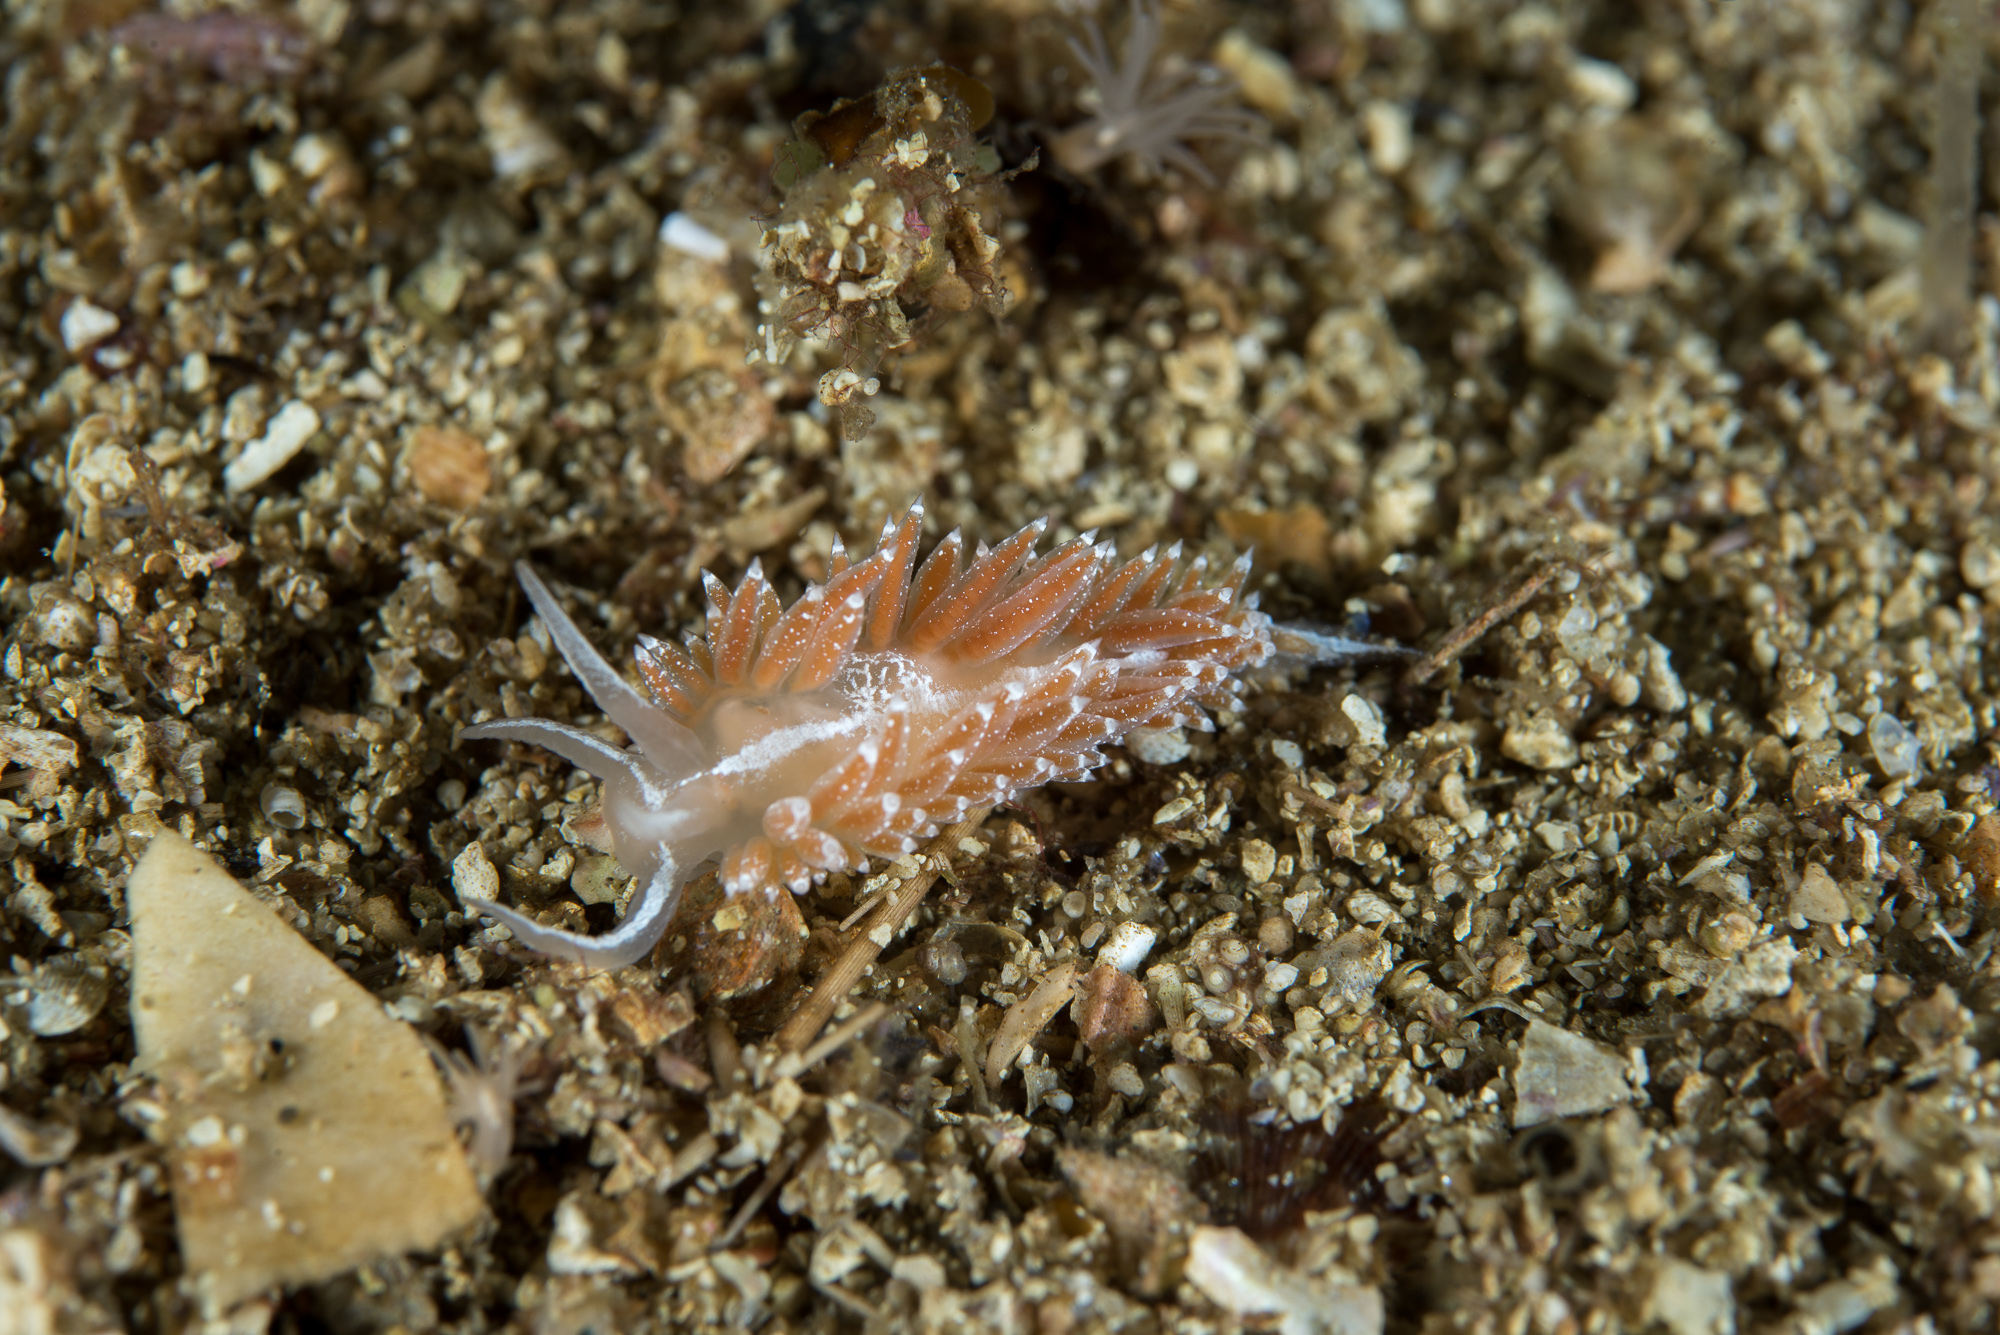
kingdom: Animalia
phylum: Mollusca
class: Gastropoda
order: Nudibranchia
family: Coryphellidae
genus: Coryphella
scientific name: Coryphella orjani
